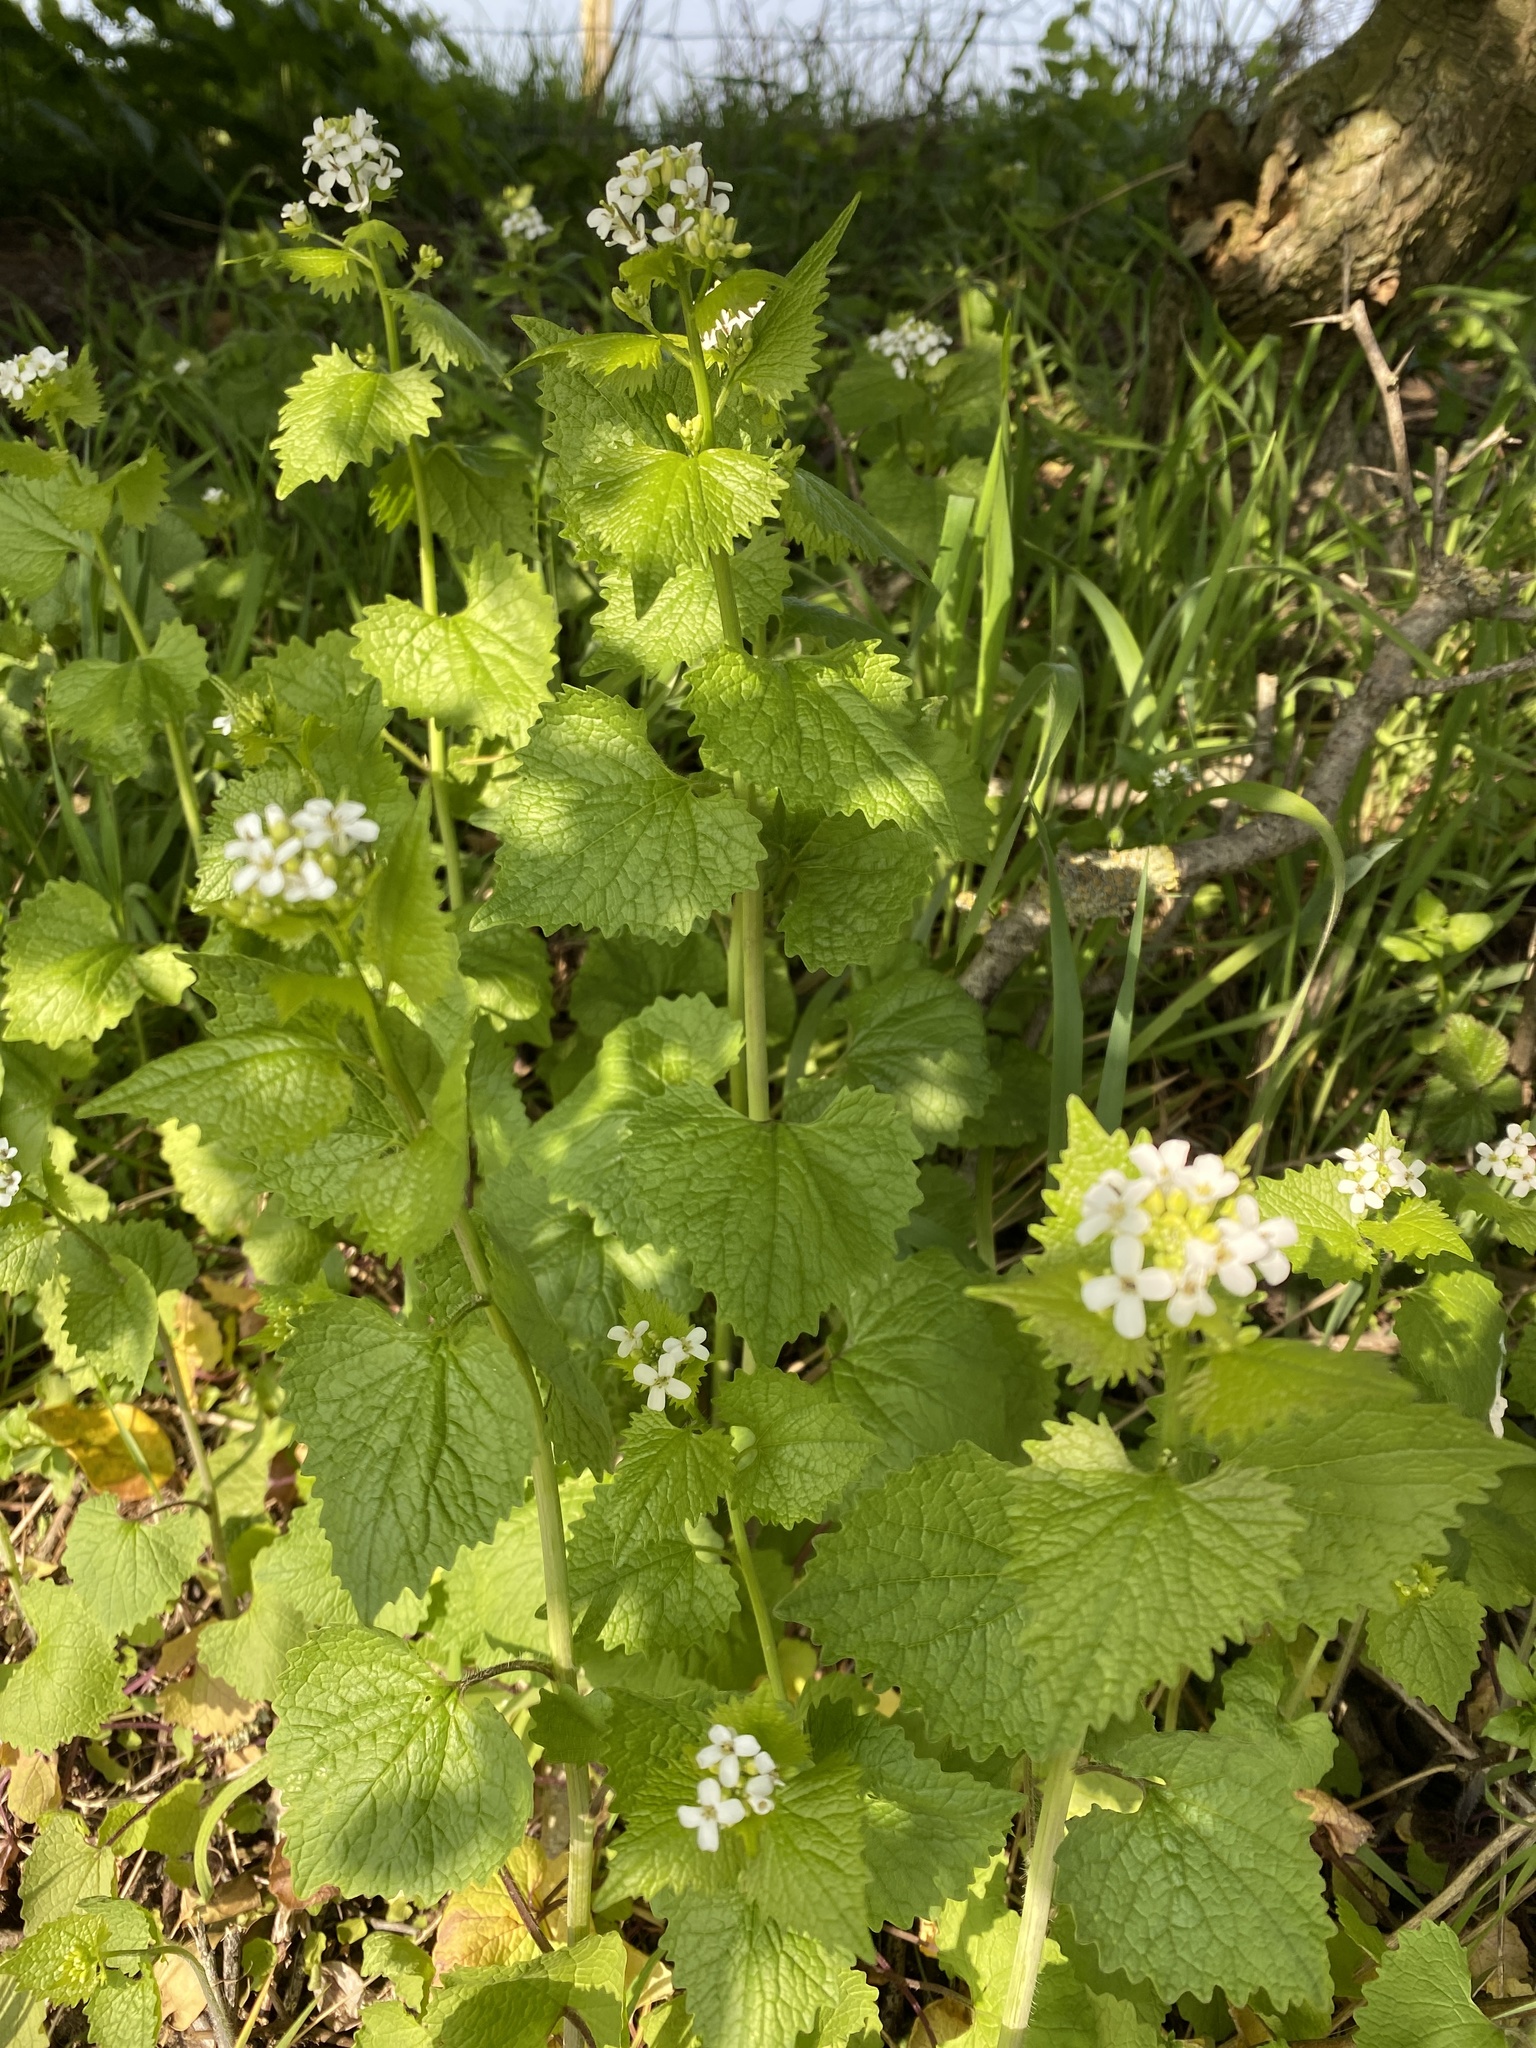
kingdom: Plantae
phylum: Tracheophyta
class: Magnoliopsida
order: Brassicales
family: Brassicaceae
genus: Alliaria
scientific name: Alliaria petiolata
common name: Garlic mustard
